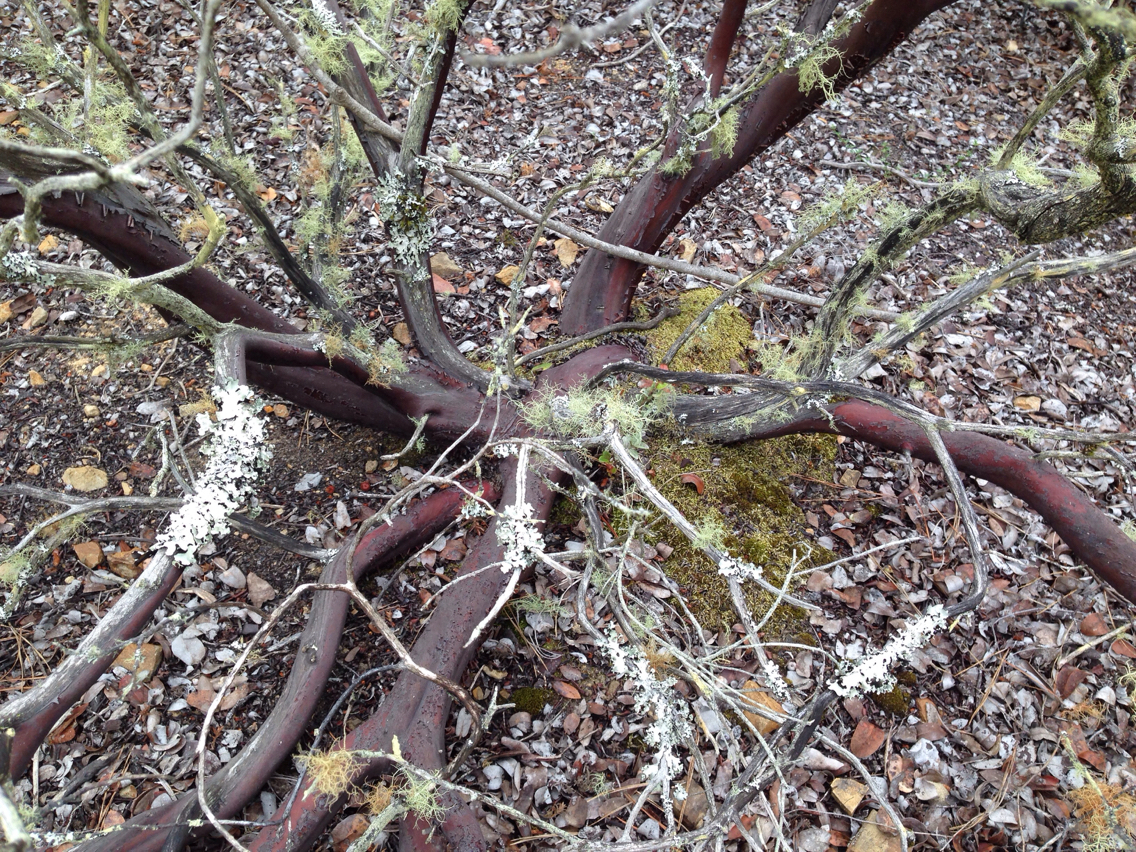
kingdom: Plantae
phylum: Tracheophyta
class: Magnoliopsida
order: Ericales
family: Ericaceae
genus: Arctostaphylos
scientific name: Arctostaphylos montaraensis
